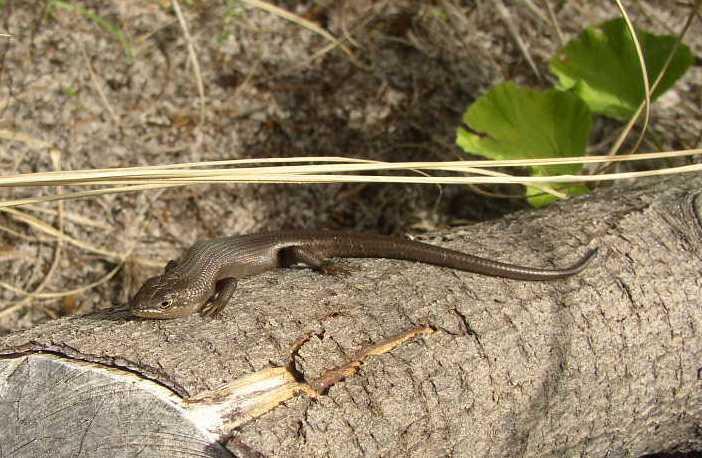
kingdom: Animalia
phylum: Chordata
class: Squamata
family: Scincidae
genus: Trachylepis
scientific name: Trachylepis capensis
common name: Cape skink
